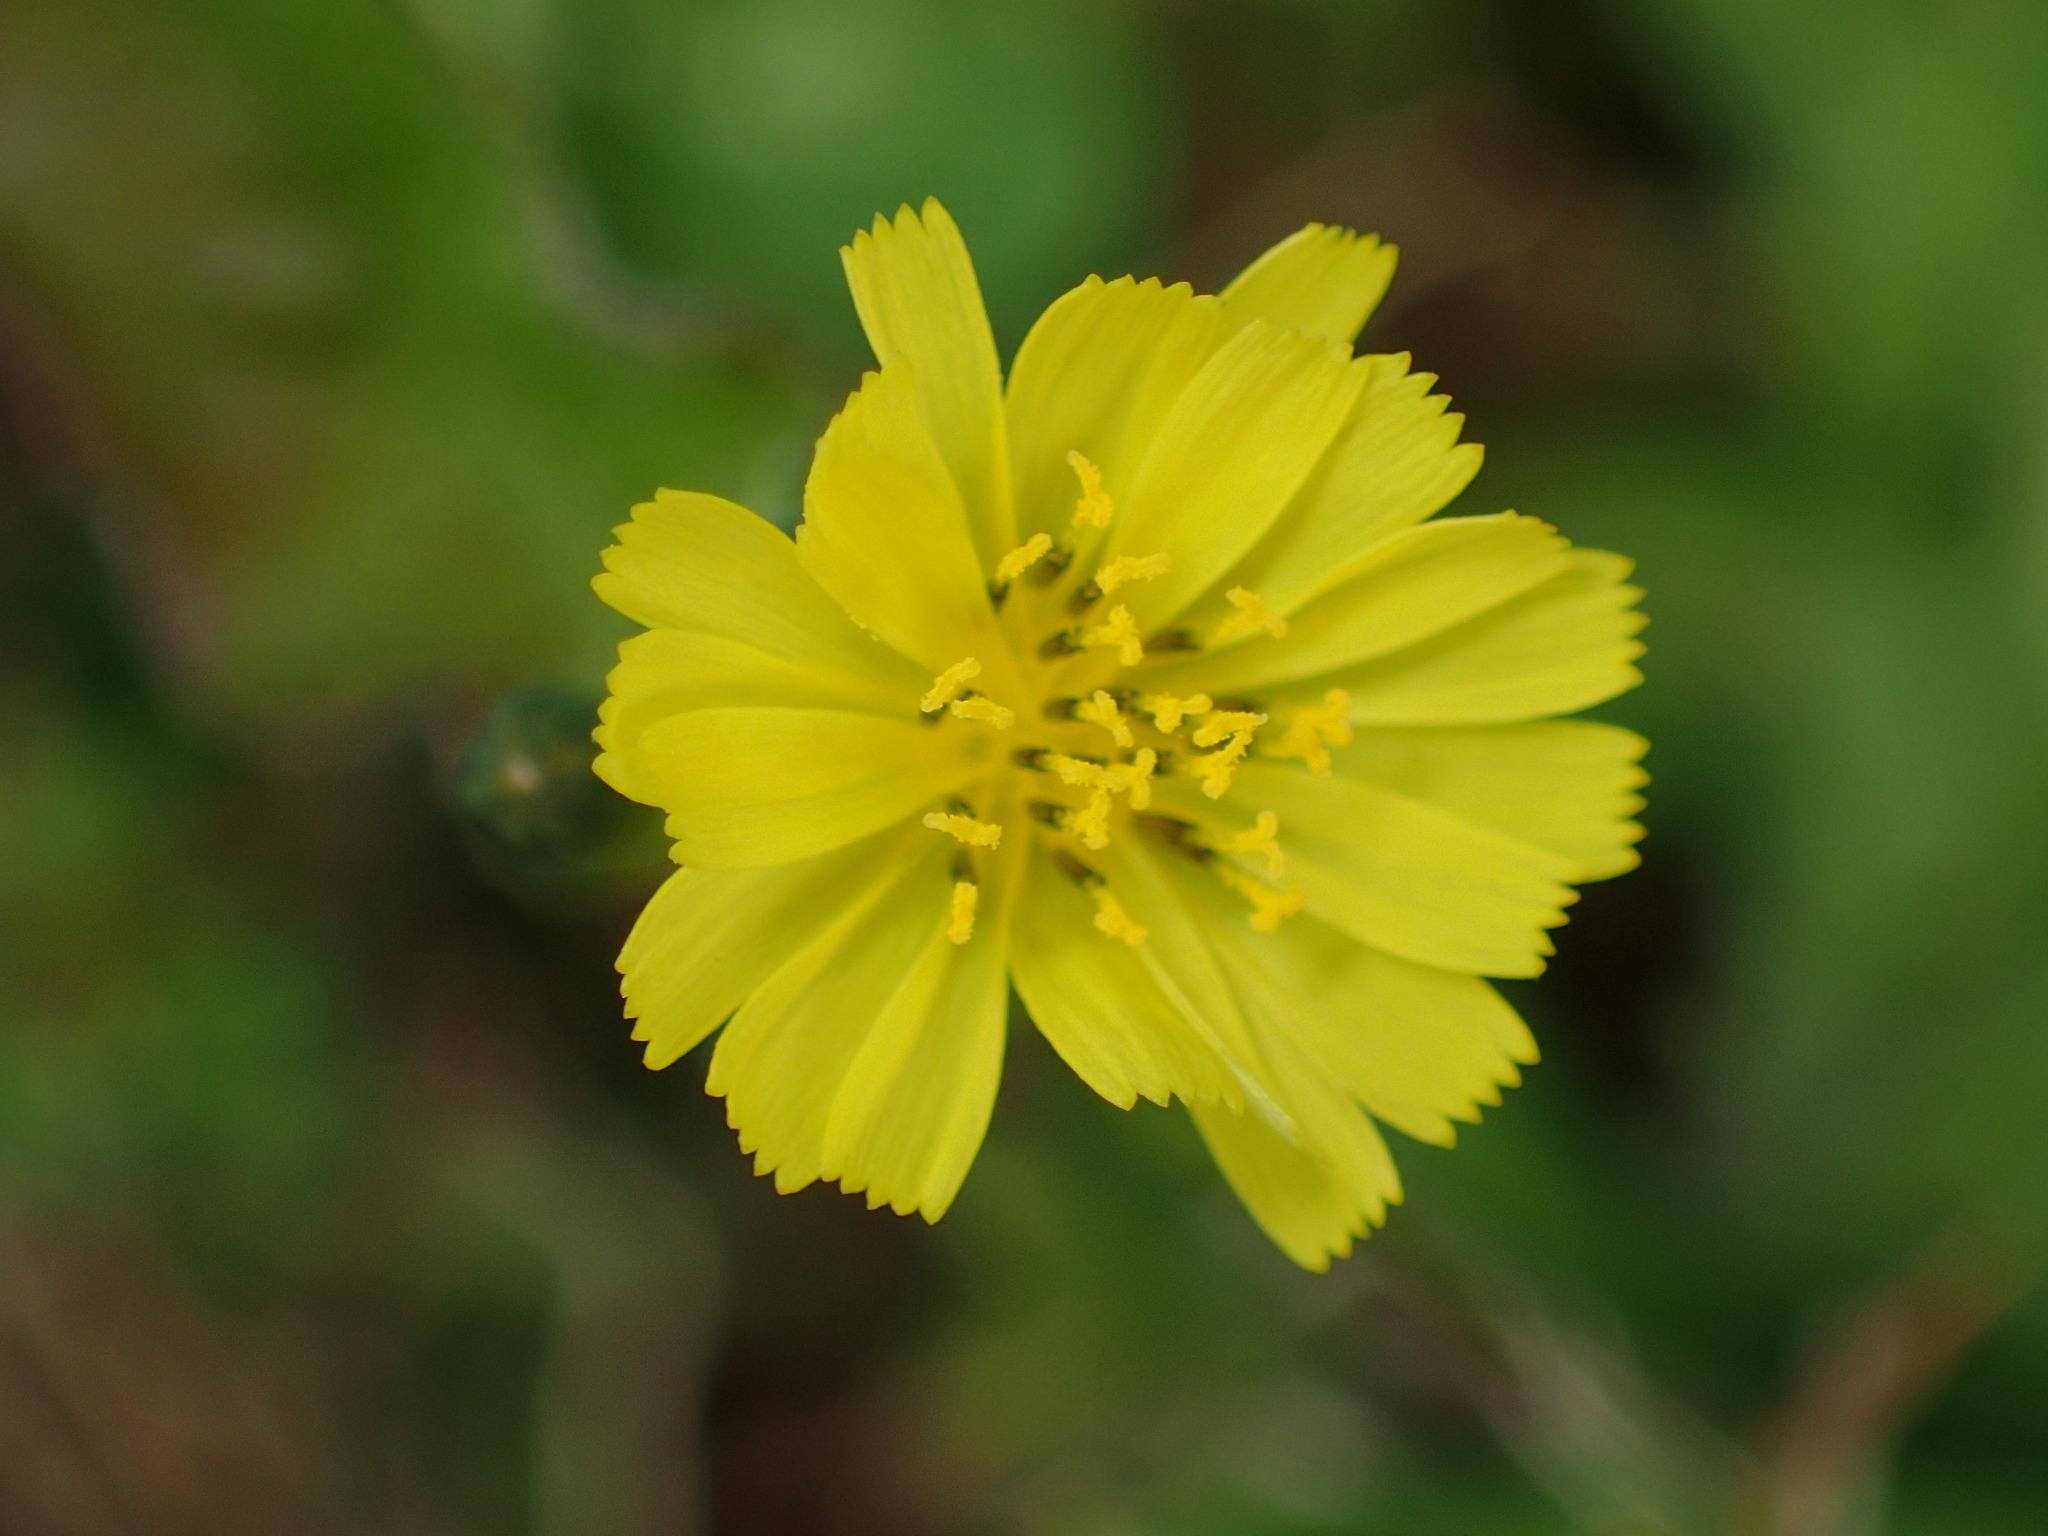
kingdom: Plantae
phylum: Tracheophyta
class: Magnoliopsida
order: Asterales
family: Asteraceae
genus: Youngia
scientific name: Youngia japonica
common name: Oriental false hawksbeard
